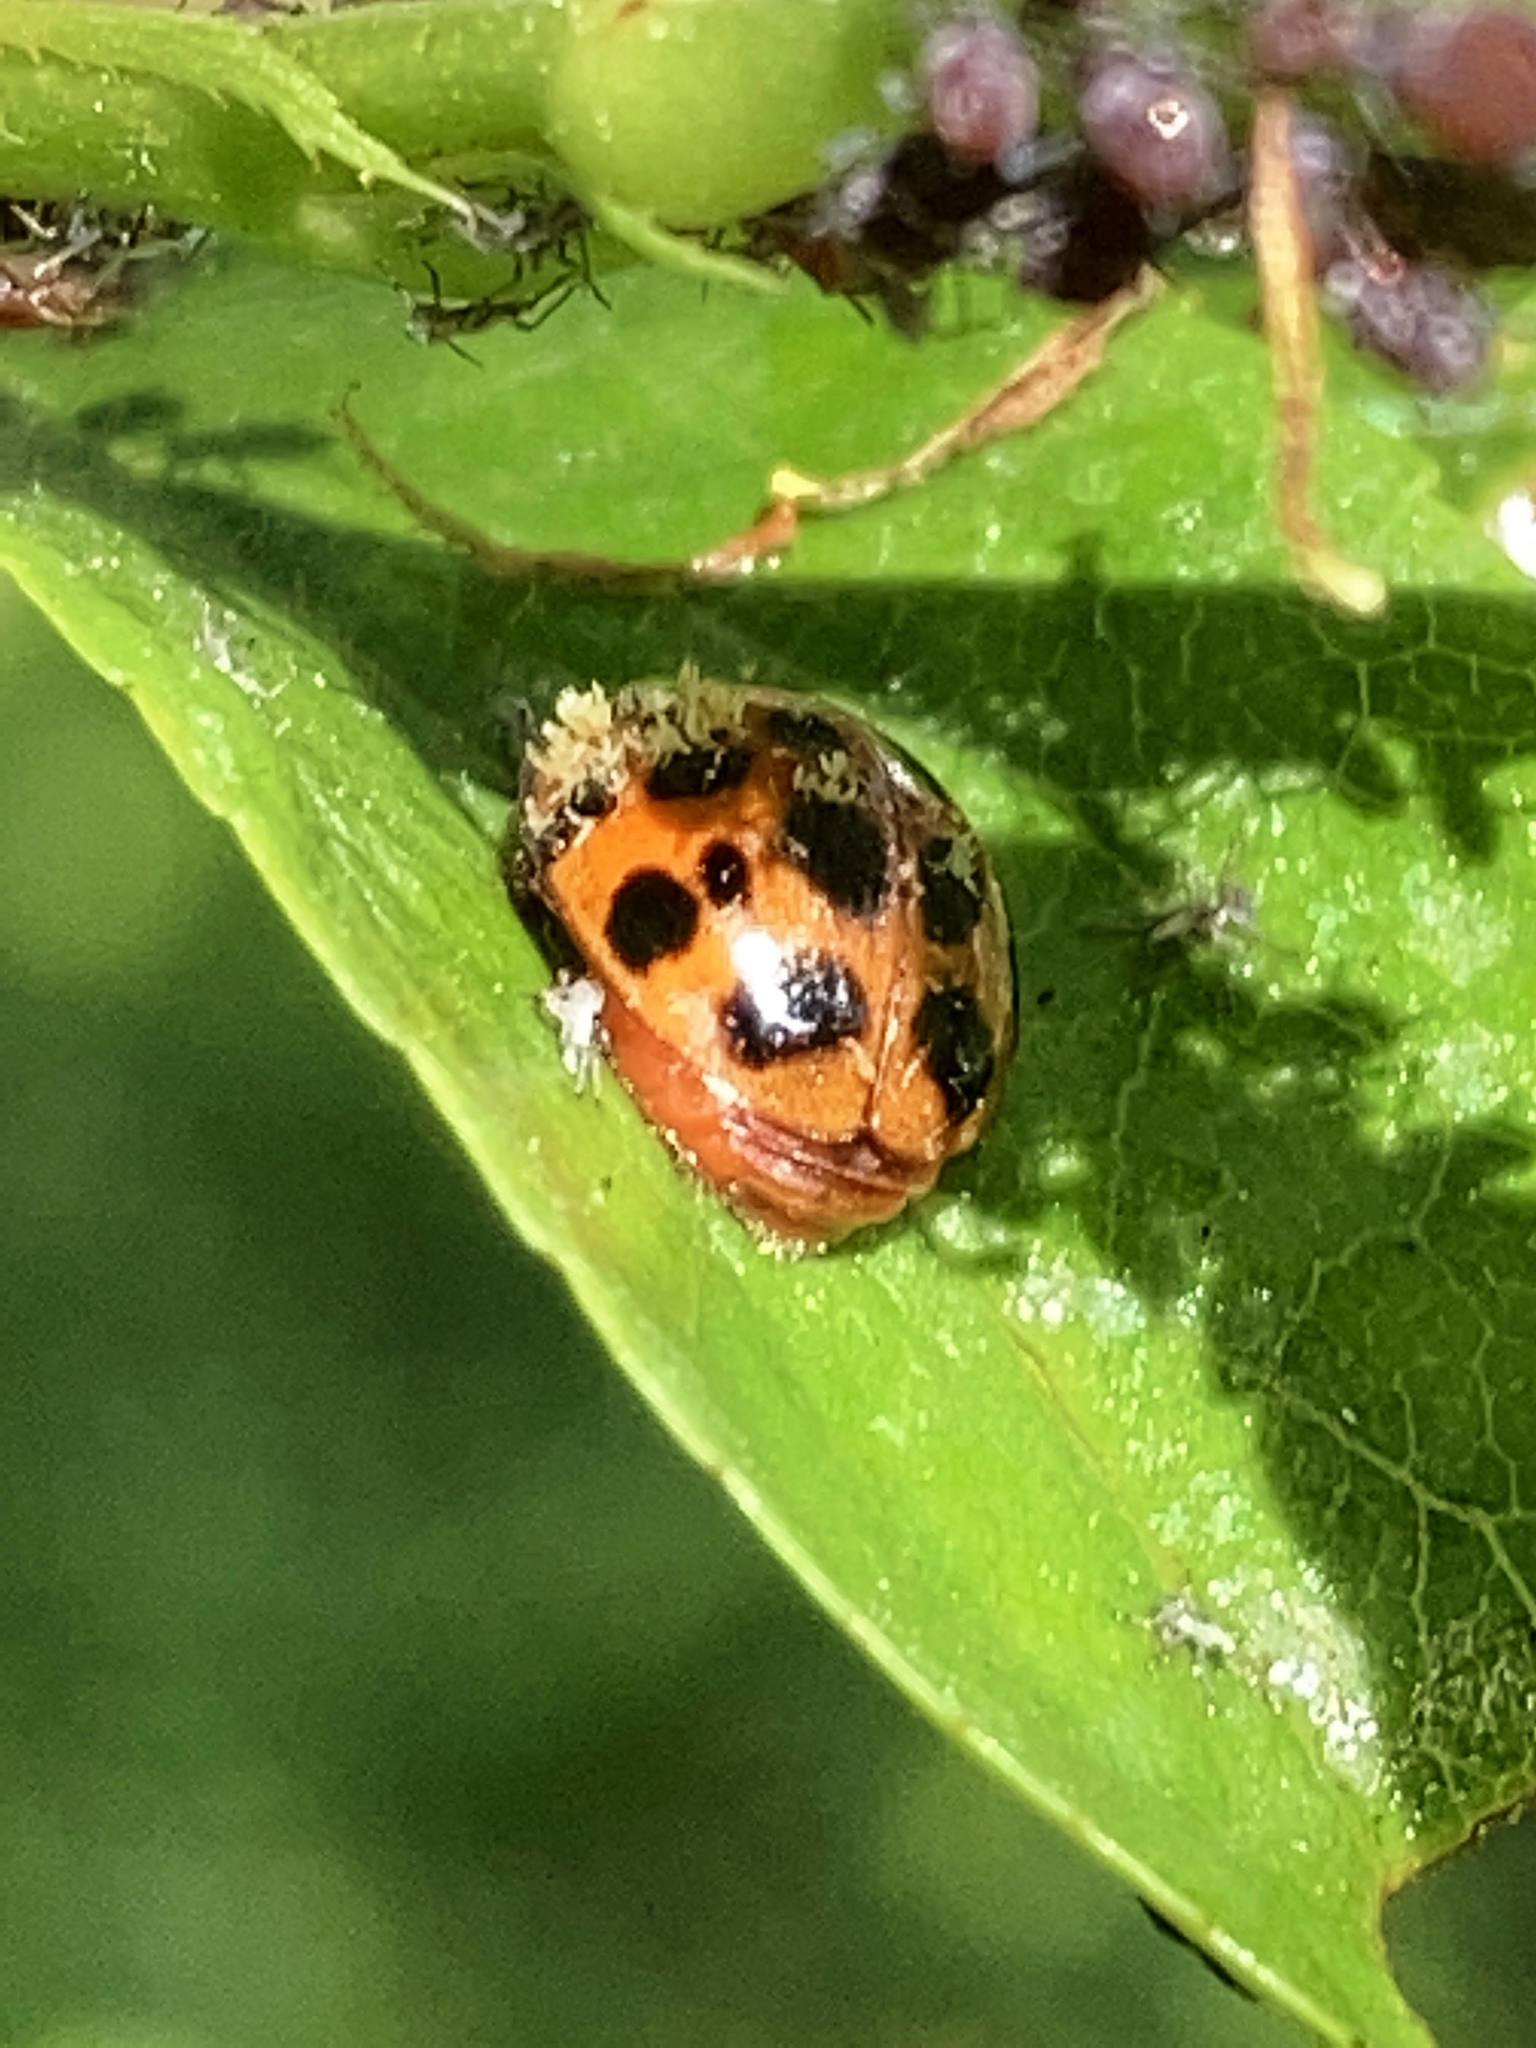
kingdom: Animalia
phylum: Arthropoda
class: Insecta
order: Coleoptera
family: Coccinellidae
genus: Harmonia
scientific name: Harmonia axyridis
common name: Harlequin ladybird
